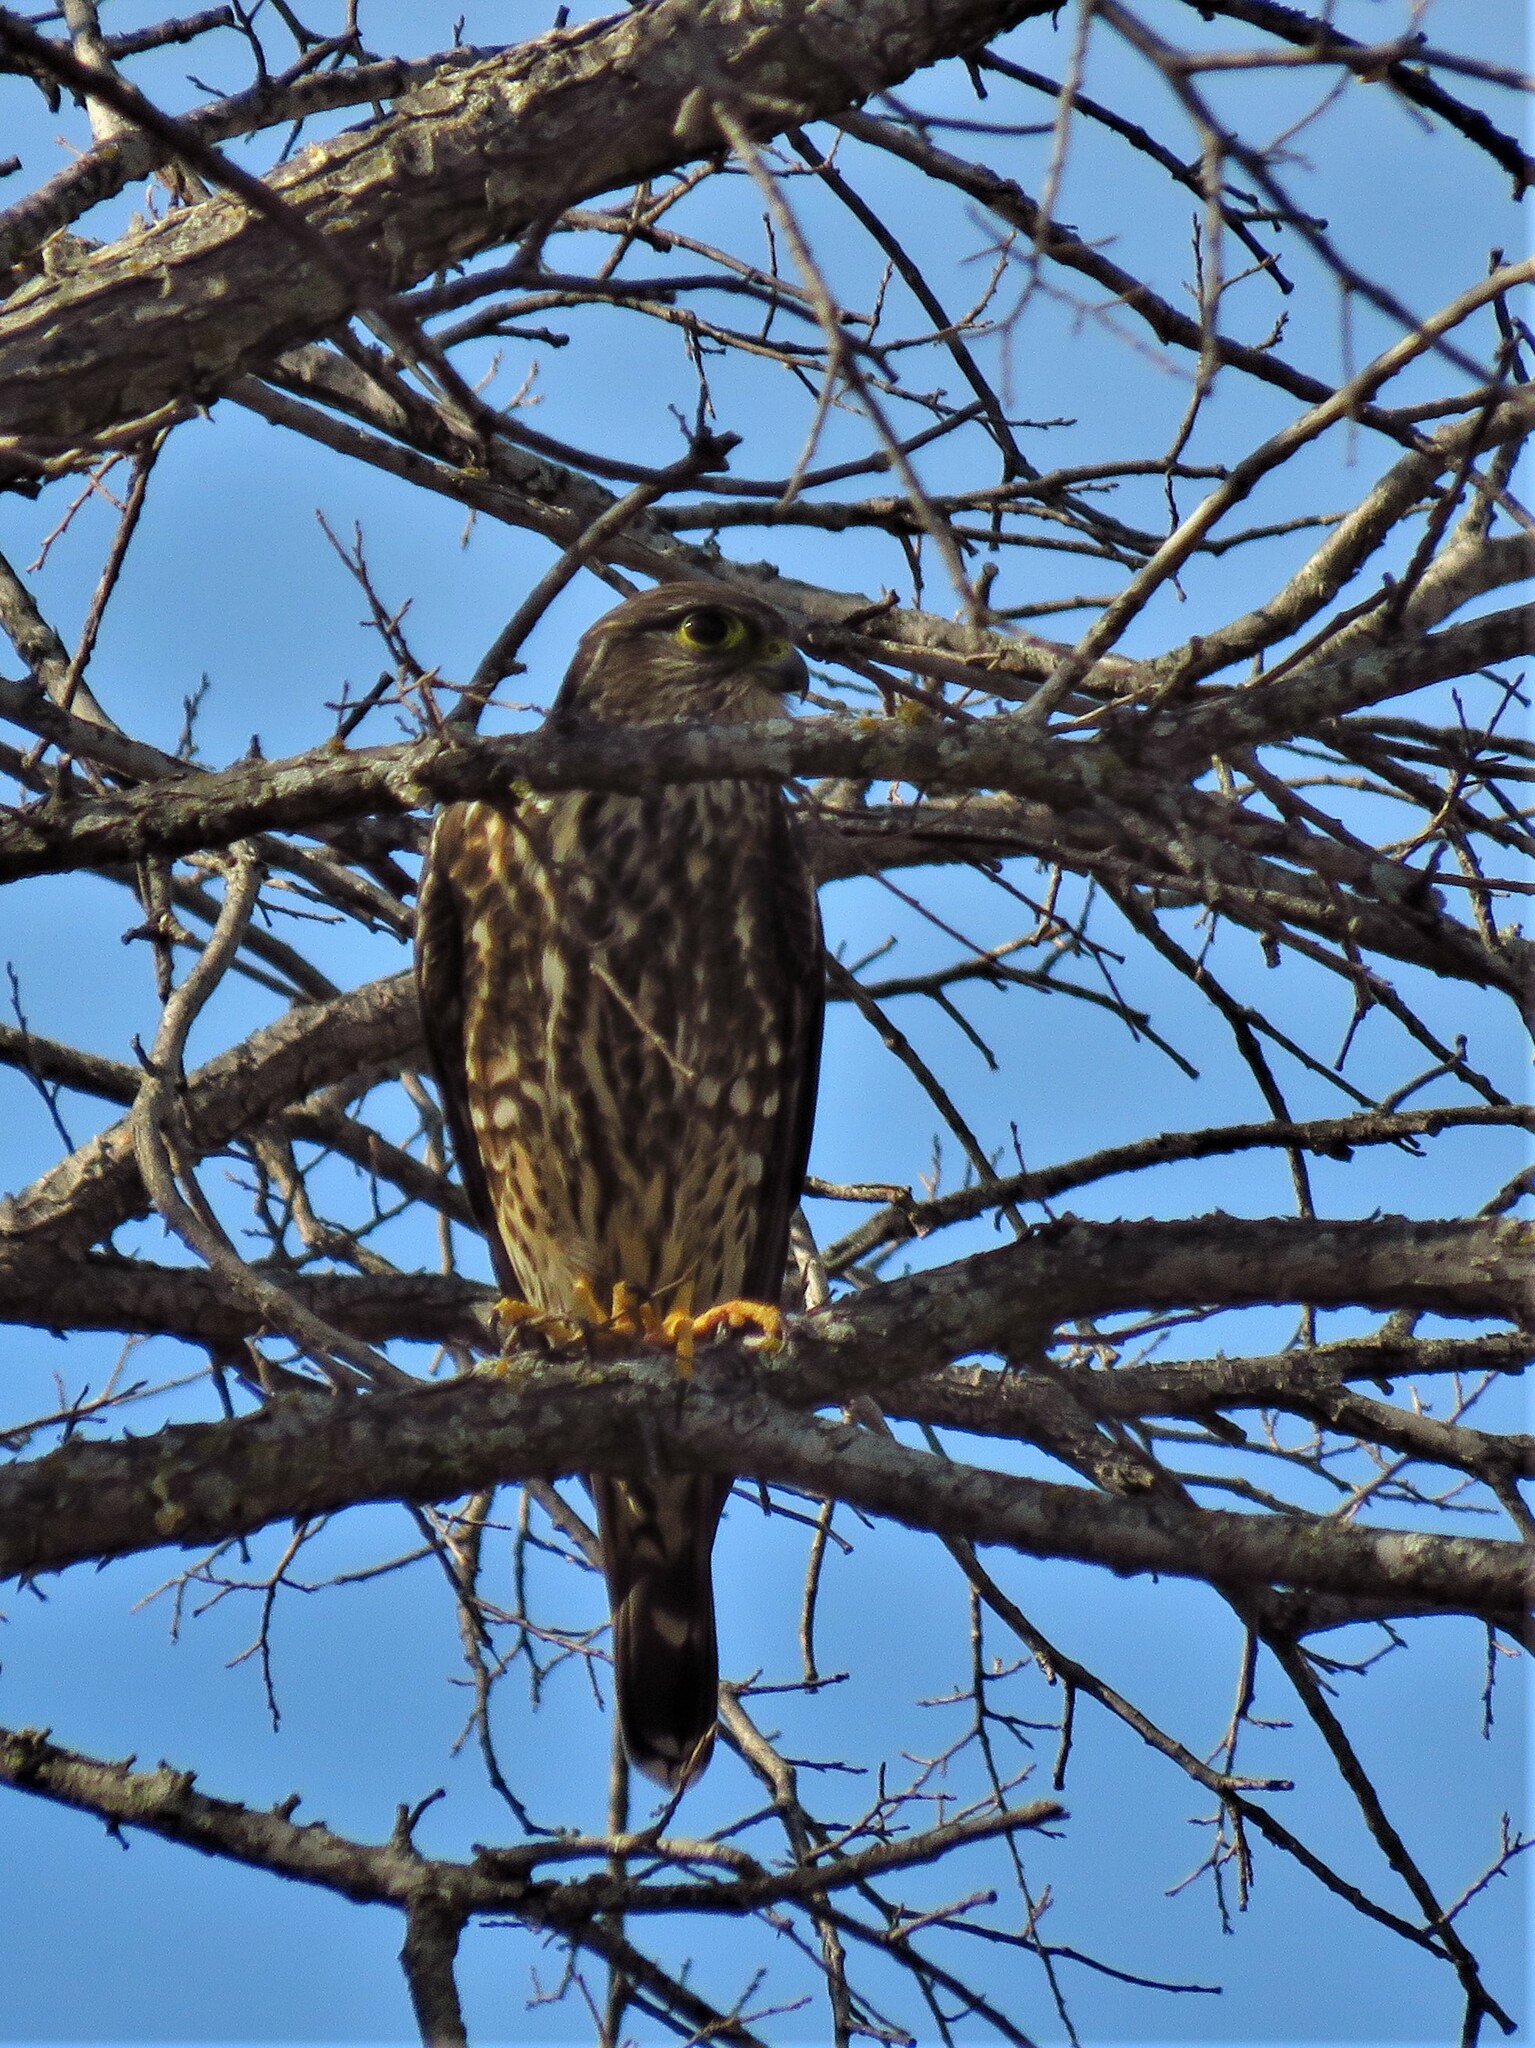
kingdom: Animalia
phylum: Chordata
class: Aves
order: Falconiformes
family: Falconidae
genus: Falco
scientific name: Falco columbarius
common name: Merlin
